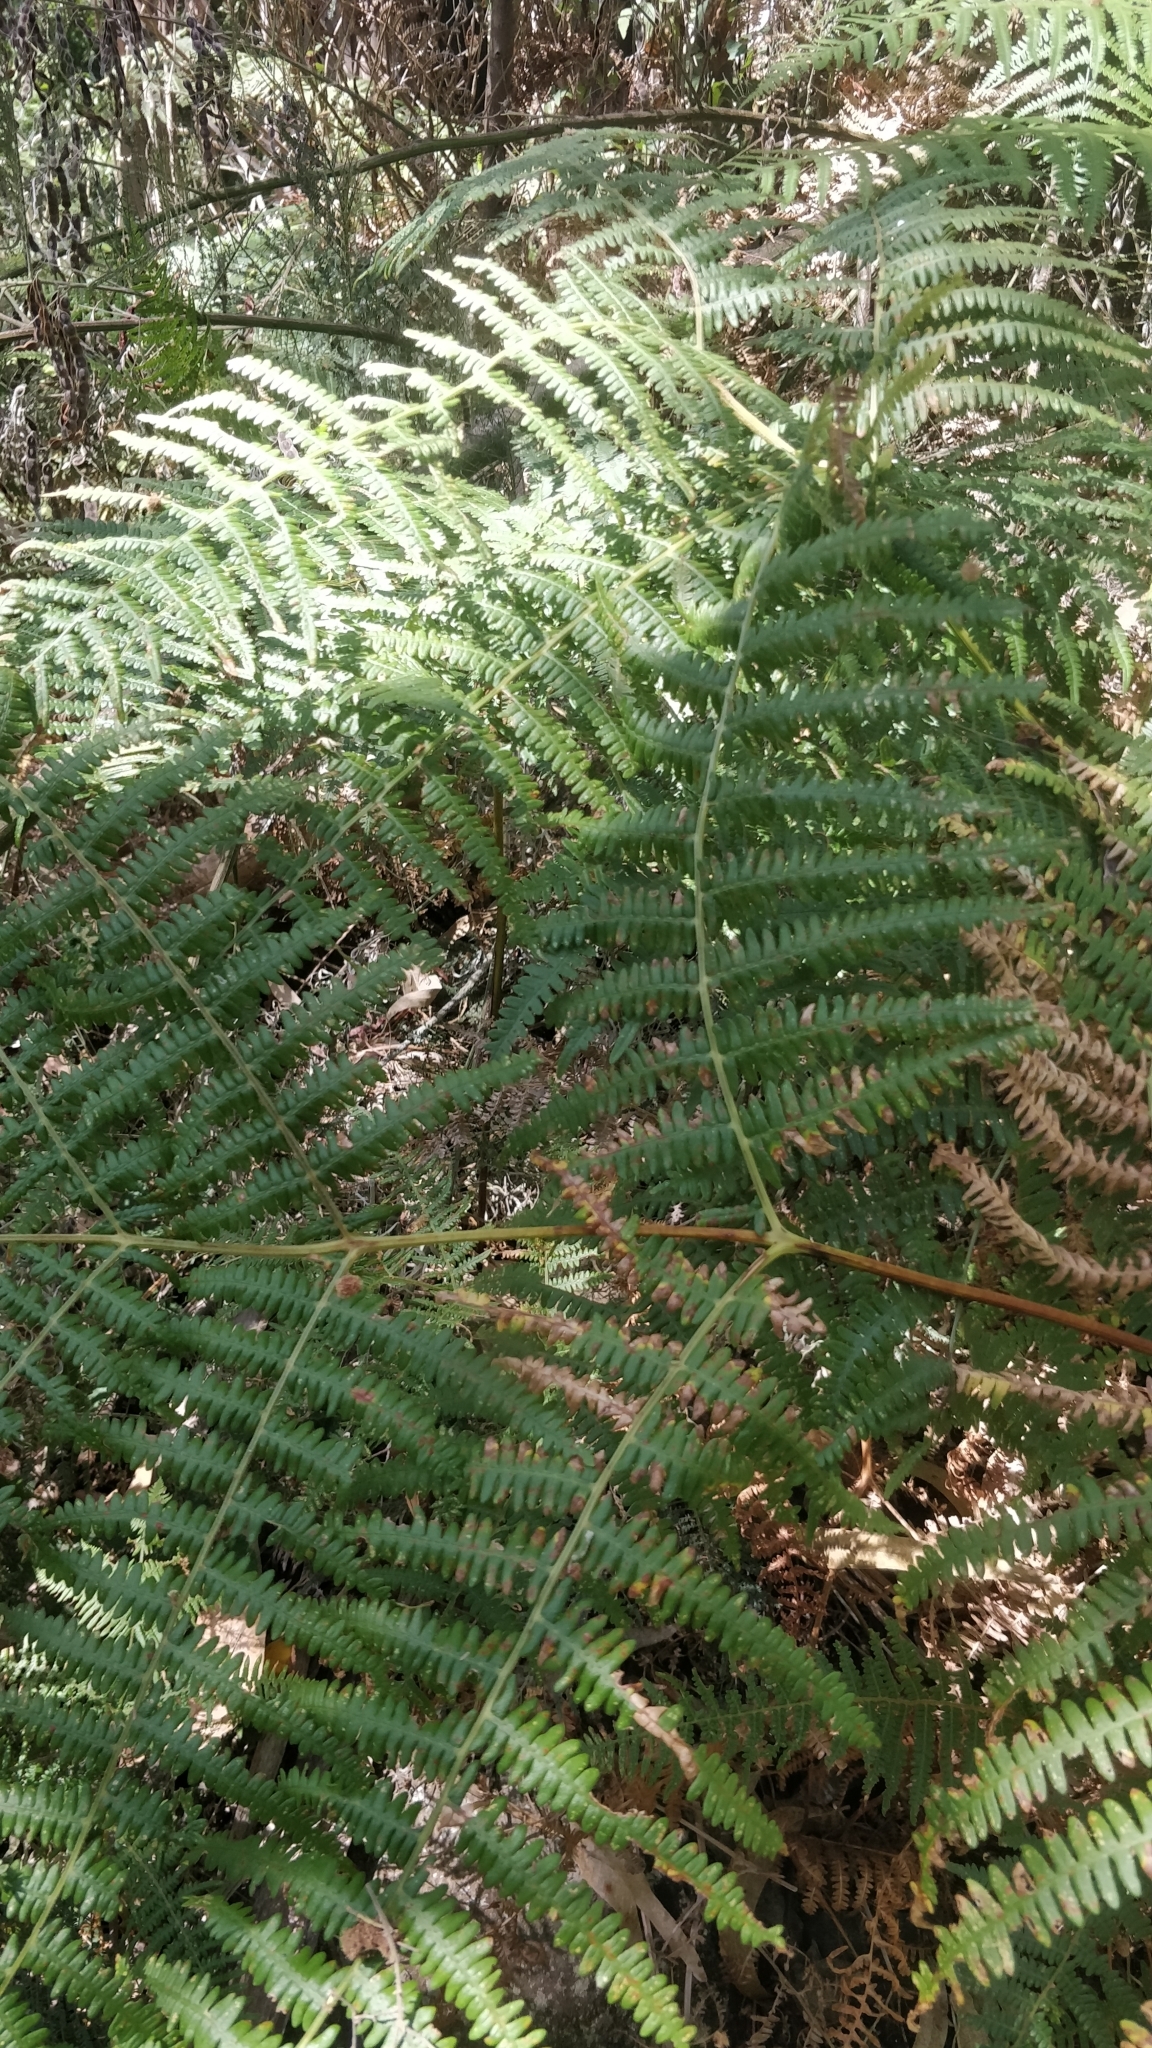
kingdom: Plantae
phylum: Tracheophyta
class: Polypodiopsida
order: Polypodiales
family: Dennstaedtiaceae
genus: Pteridium
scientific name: Pteridium aquilinum
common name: Bracken
